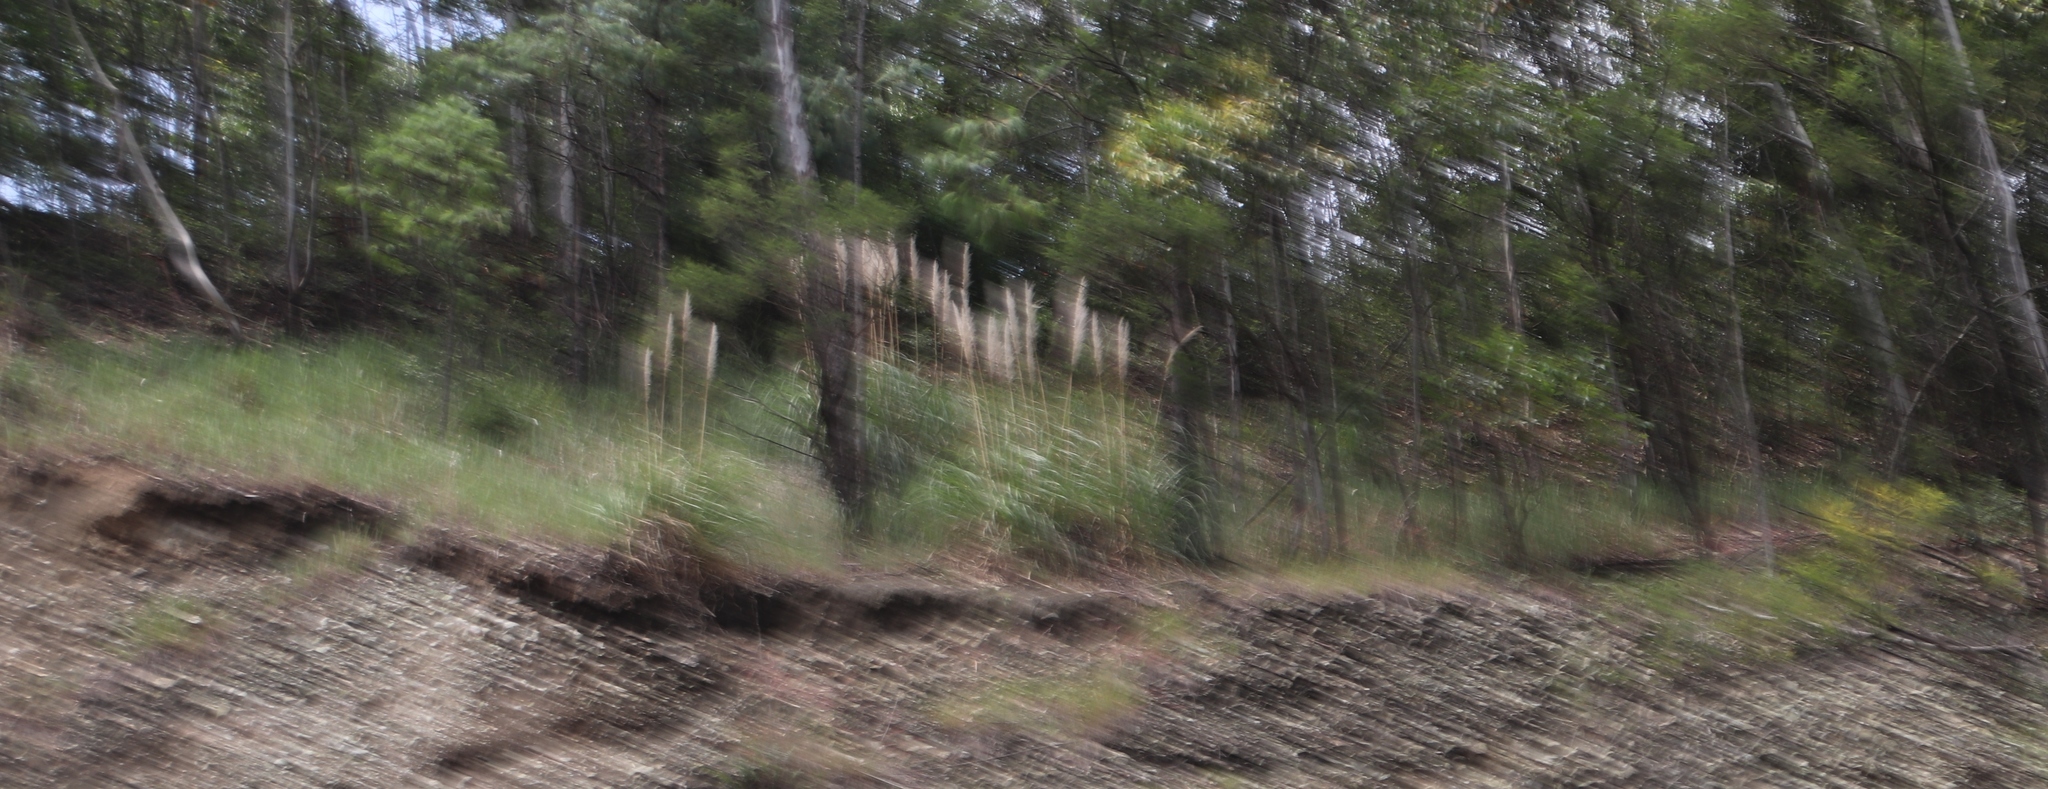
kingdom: Plantae
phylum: Tracheophyta
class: Liliopsida
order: Poales
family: Poaceae
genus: Cortaderia
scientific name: Cortaderia selloana
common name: Uruguayan pampas grass
